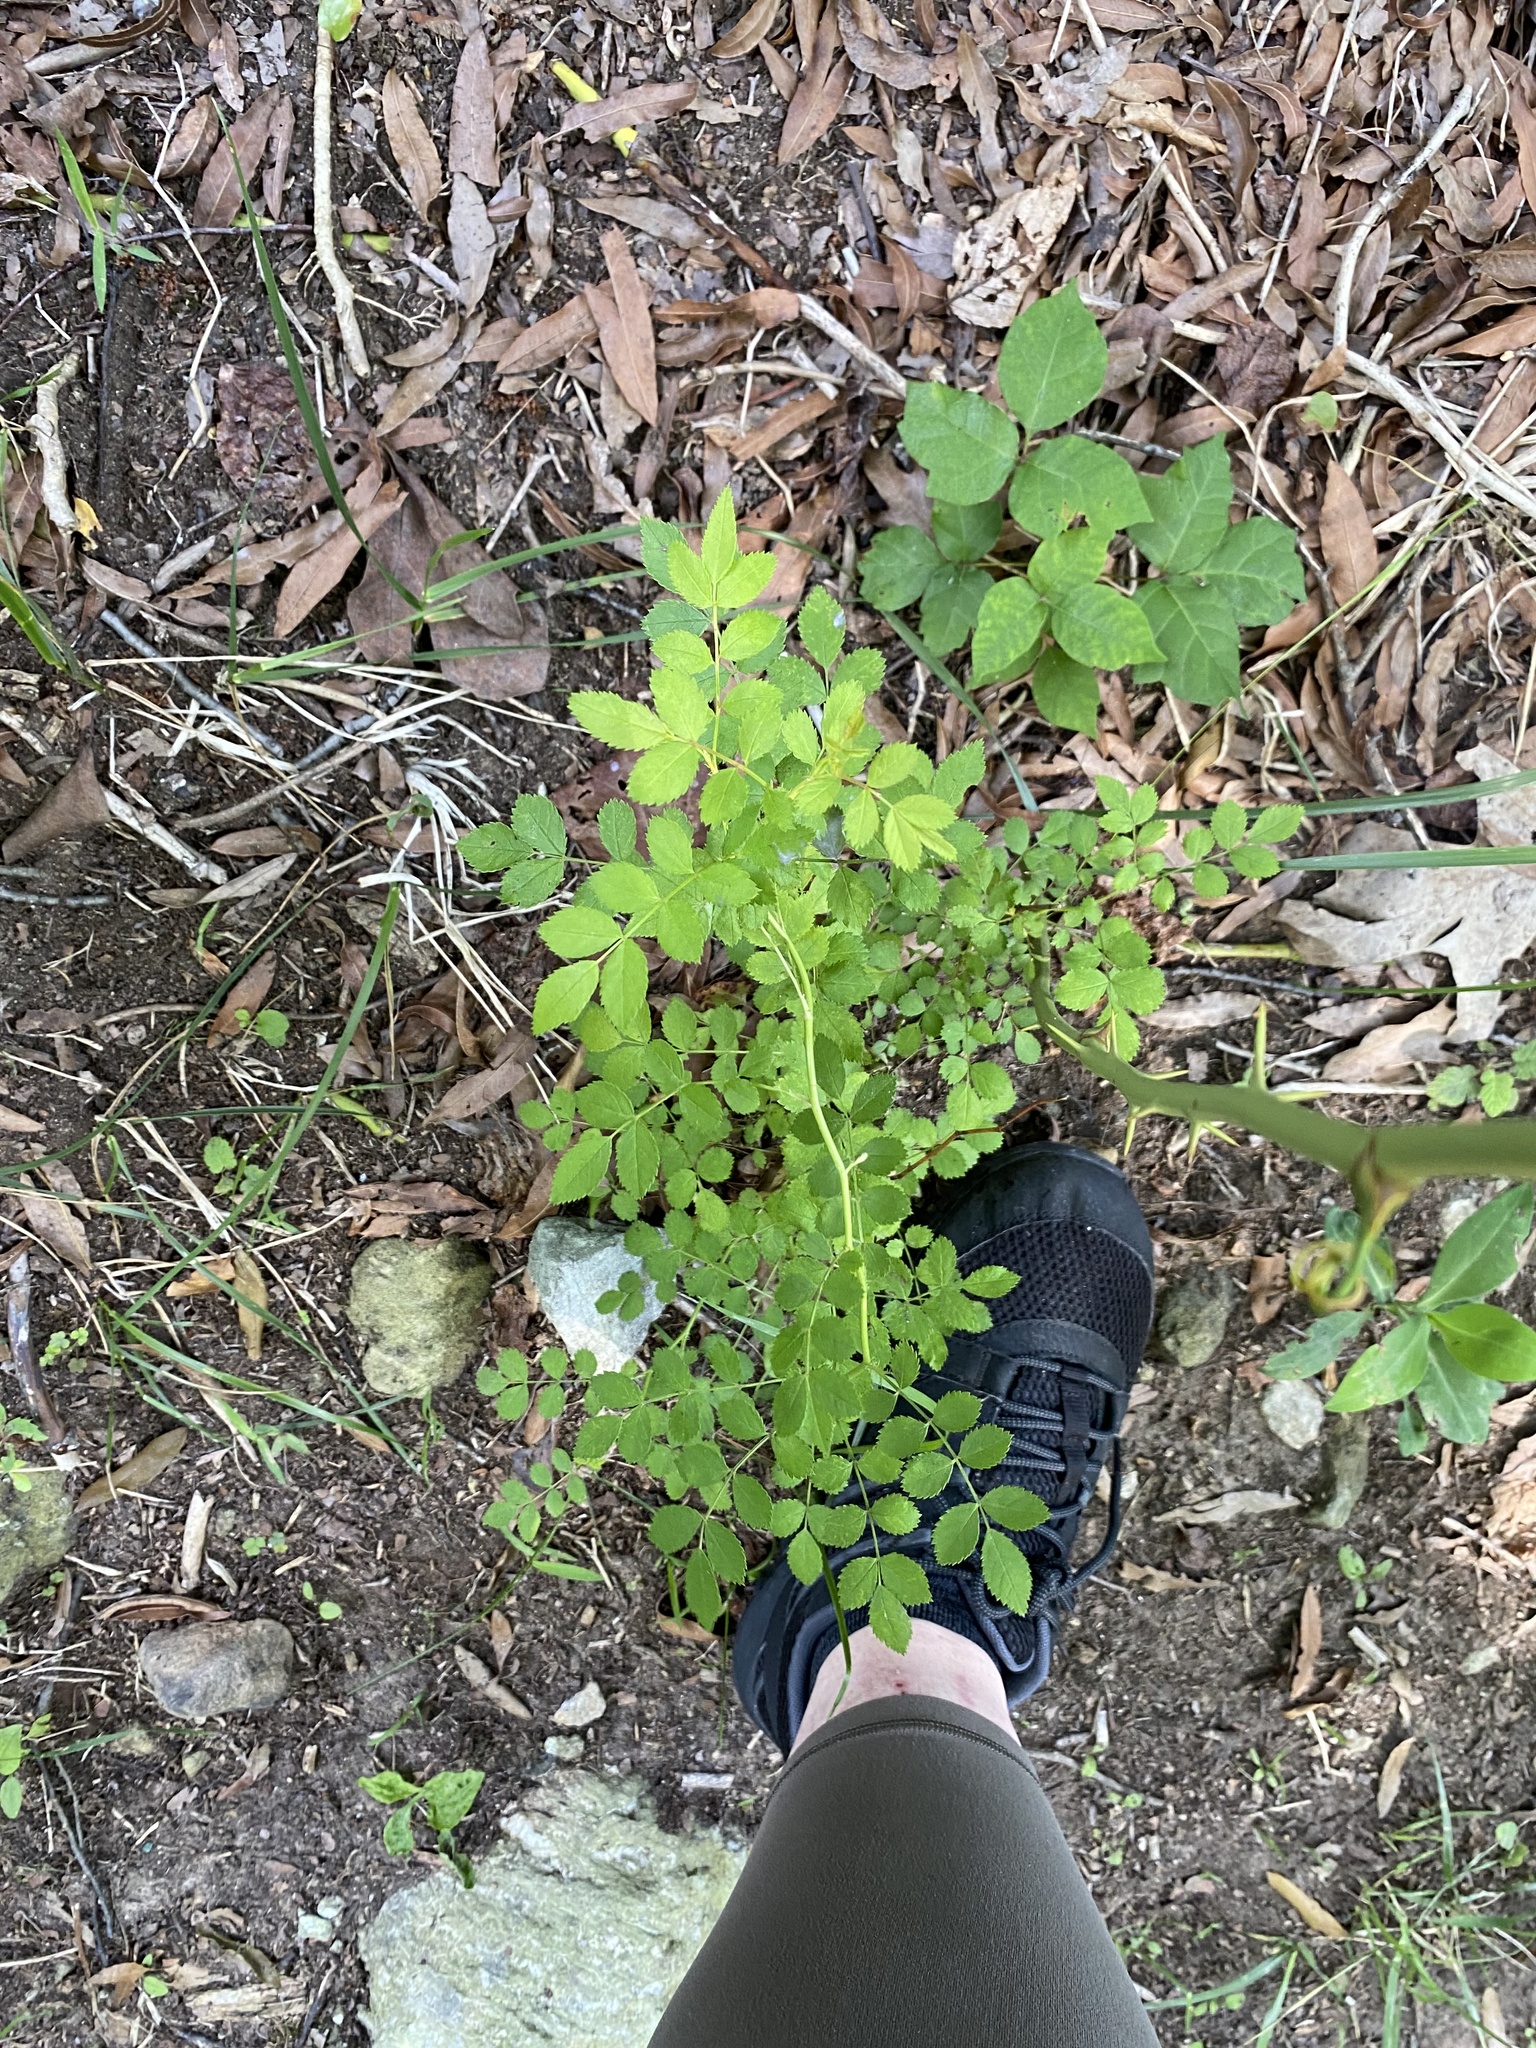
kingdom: Plantae
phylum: Tracheophyta
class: Magnoliopsida
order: Rosales
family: Rosaceae
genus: Rosa
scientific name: Rosa multiflora
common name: Multiflora rose
